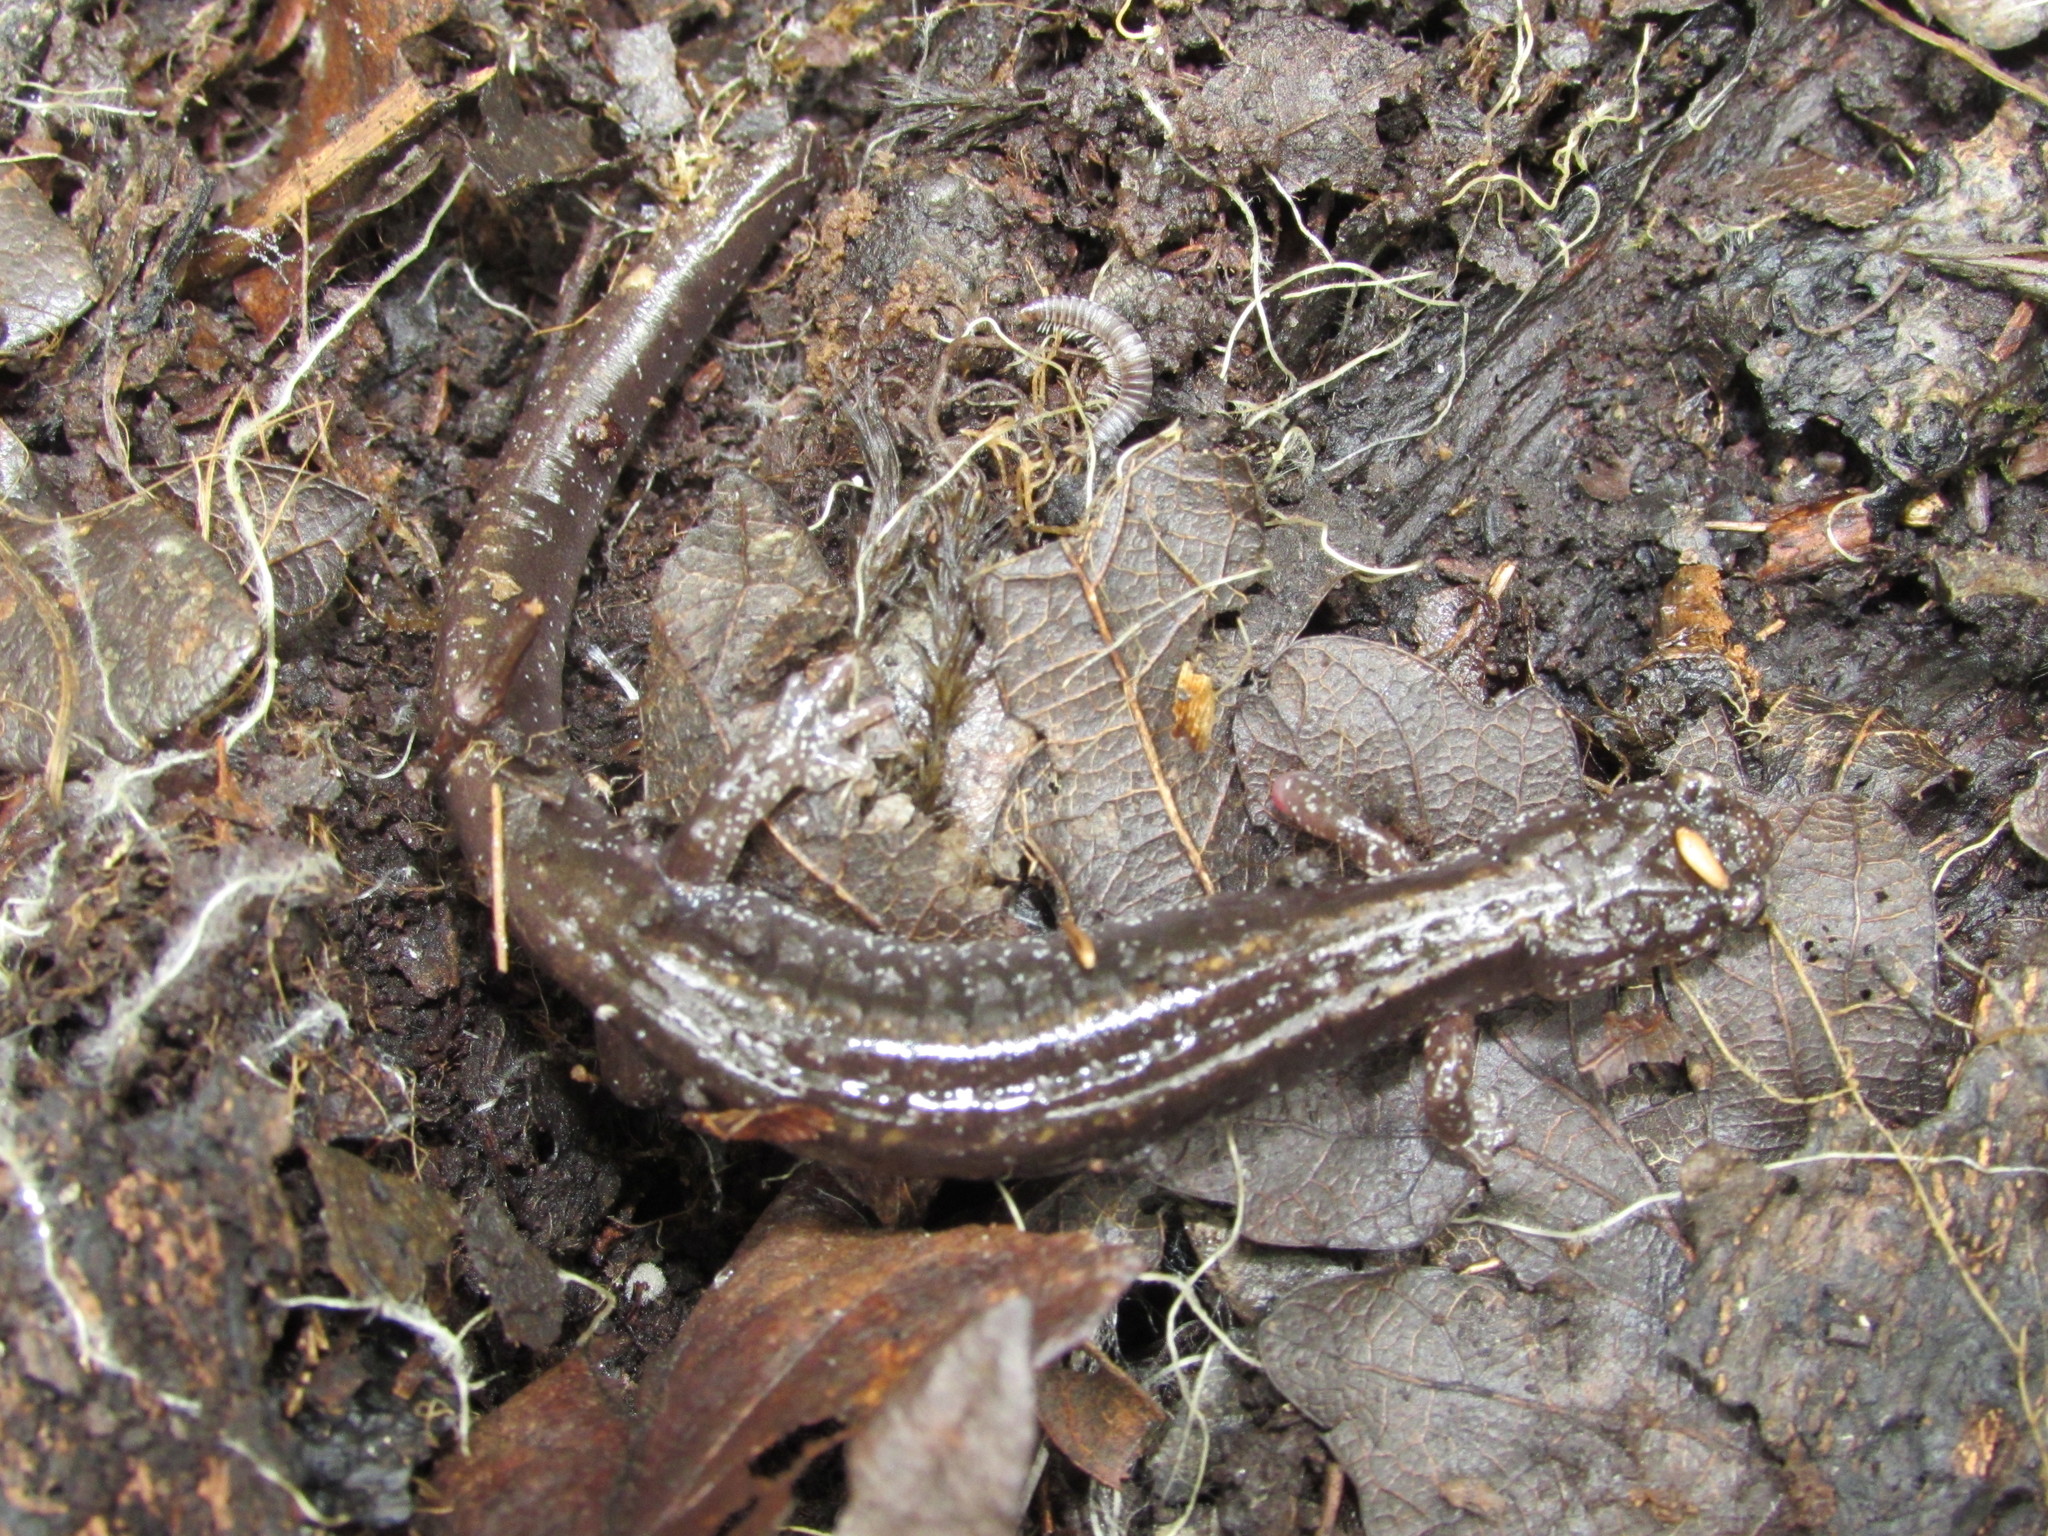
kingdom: Animalia
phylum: Chordata
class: Amphibia
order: Caudata
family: Plethodontidae
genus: Plethodon
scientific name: Plethodon dunni
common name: Dunn's salamander
